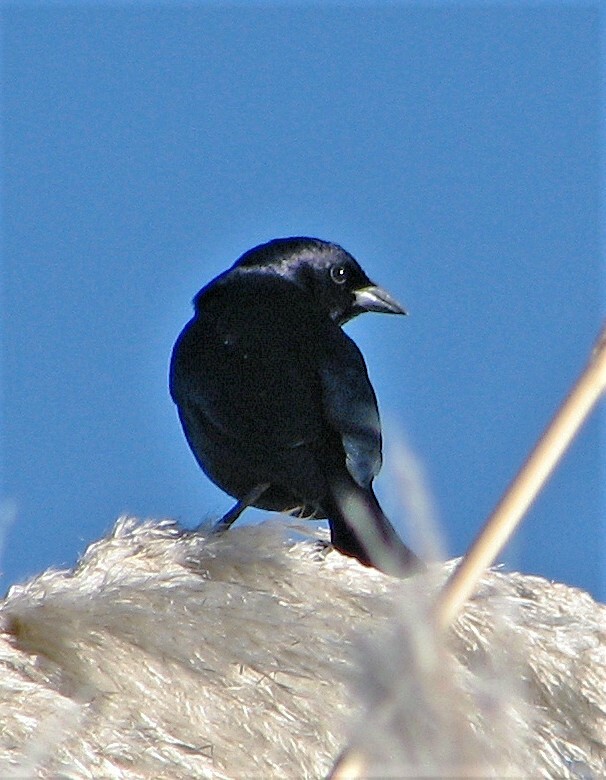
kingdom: Animalia
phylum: Chordata
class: Aves
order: Passeriformes
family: Icteridae
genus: Molothrus
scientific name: Molothrus bonariensis
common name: Shiny cowbird
